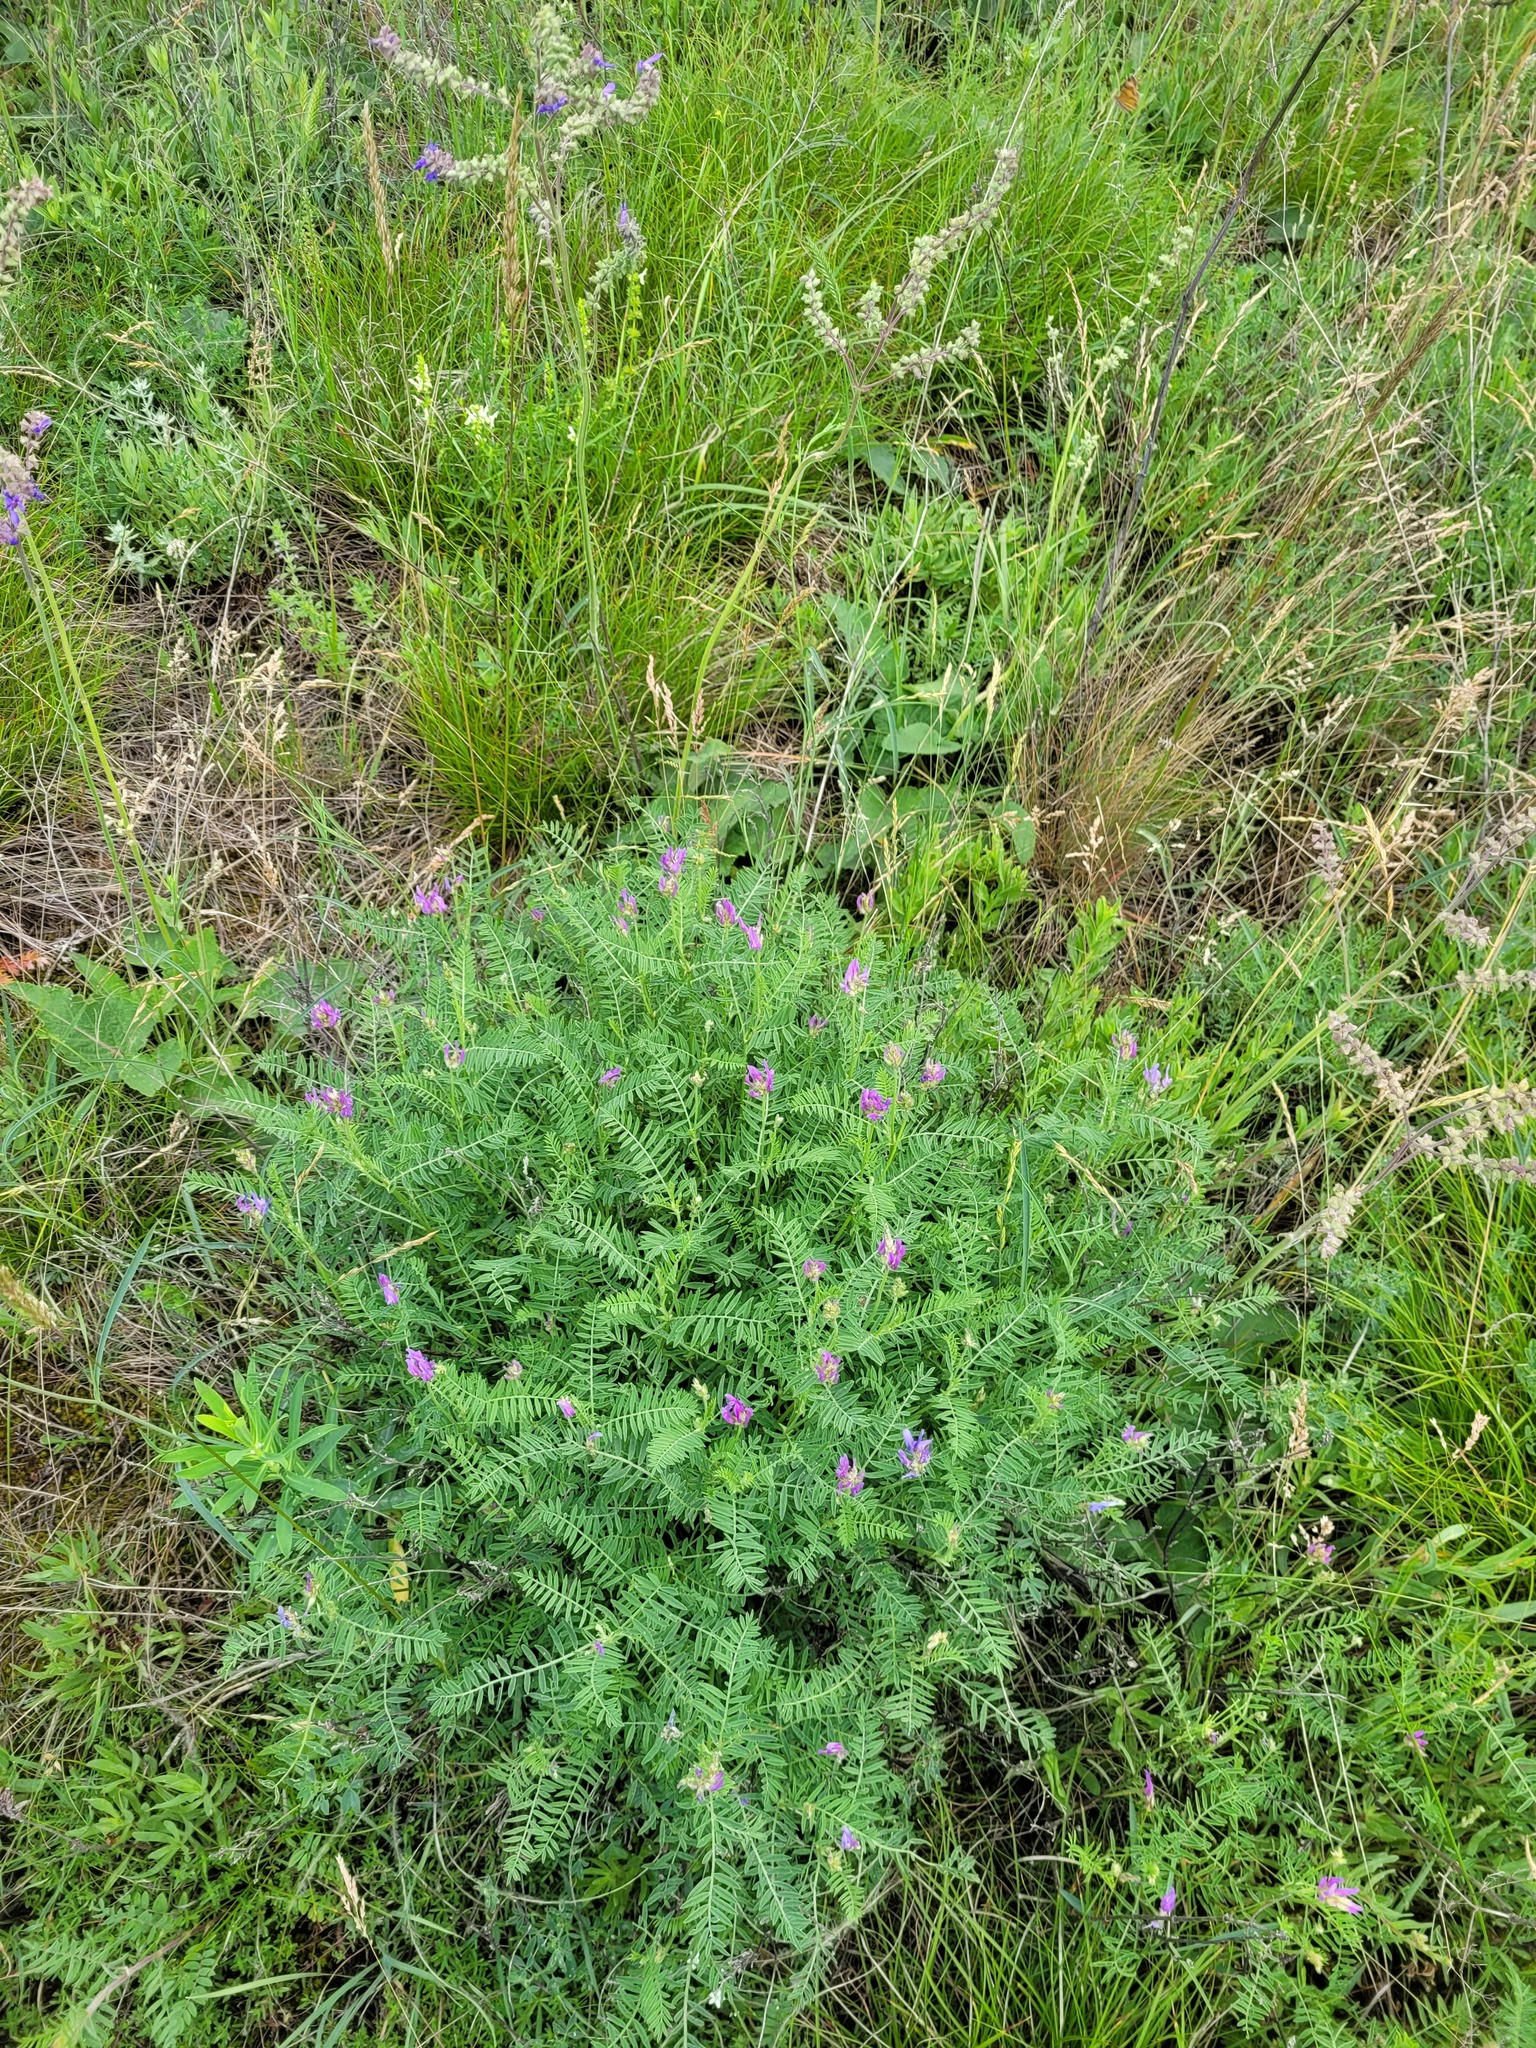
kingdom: Plantae
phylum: Tracheophyta
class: Magnoliopsida
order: Fabales
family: Fabaceae
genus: Astragalus
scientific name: Astragalus onobrychis
